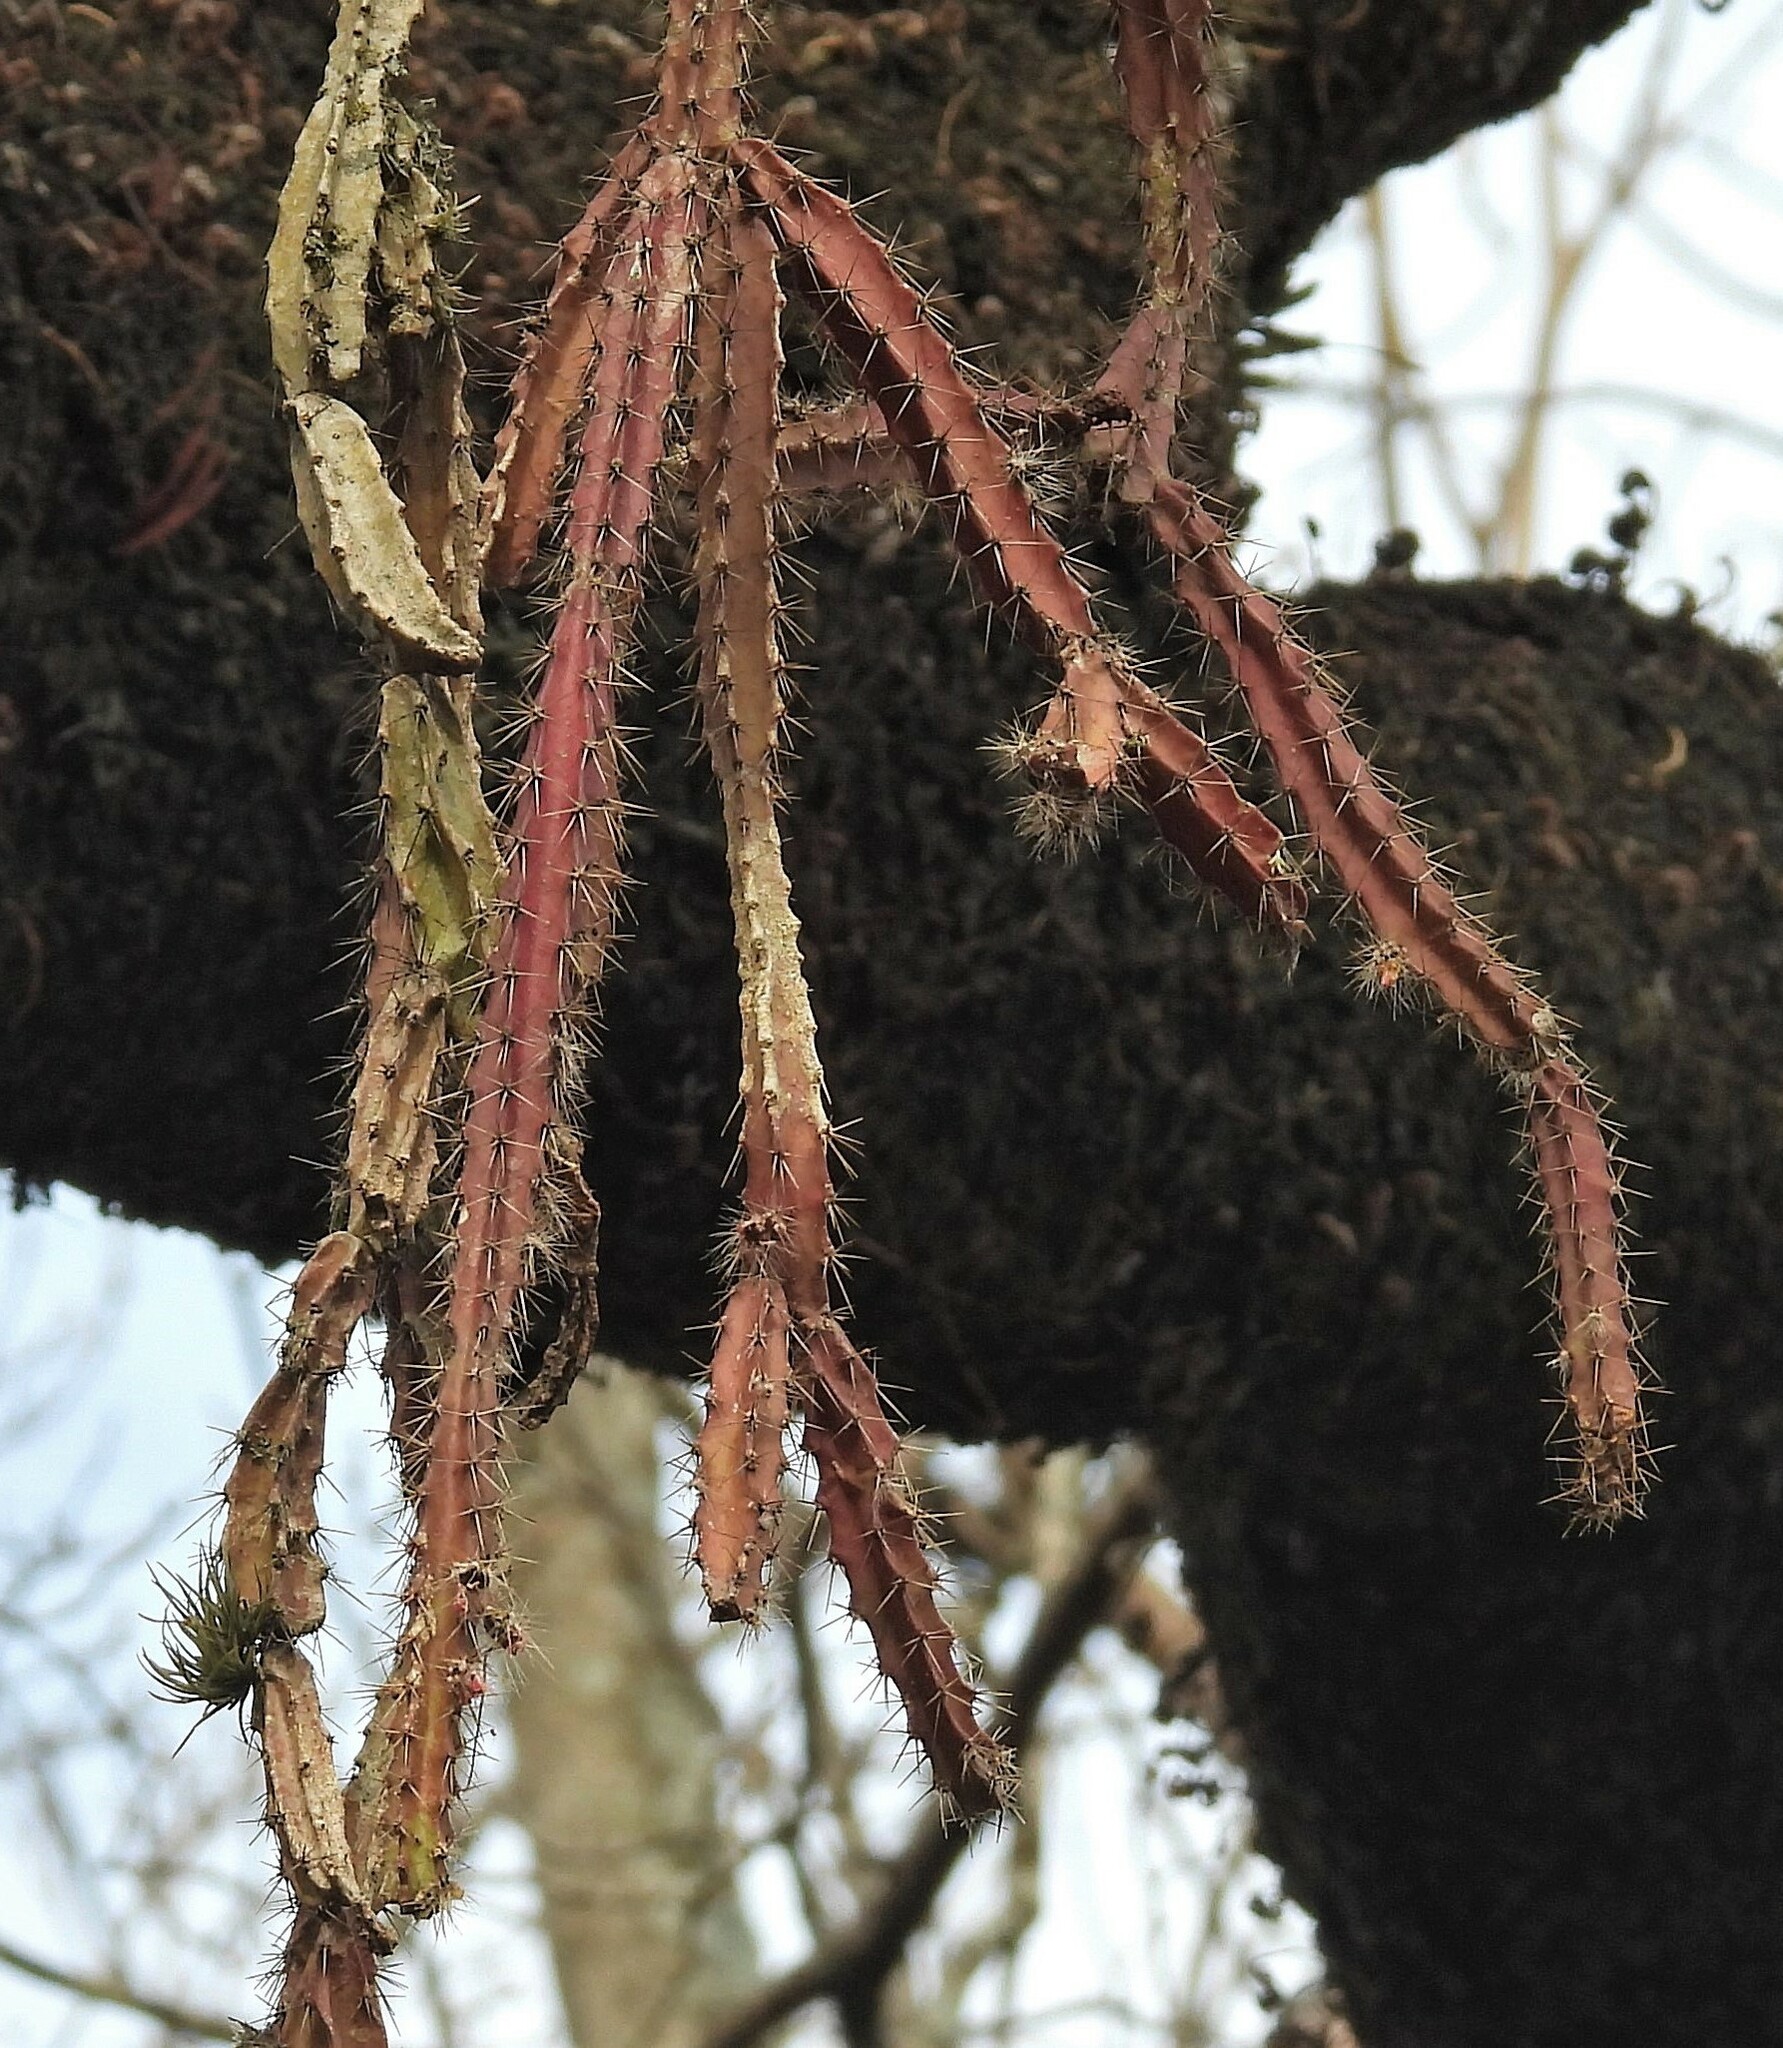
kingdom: Plantae
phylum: Tracheophyta
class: Magnoliopsida
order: Caryophyllales
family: Cactaceae
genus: Pfeiffera
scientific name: Pfeiffera ianthothele
